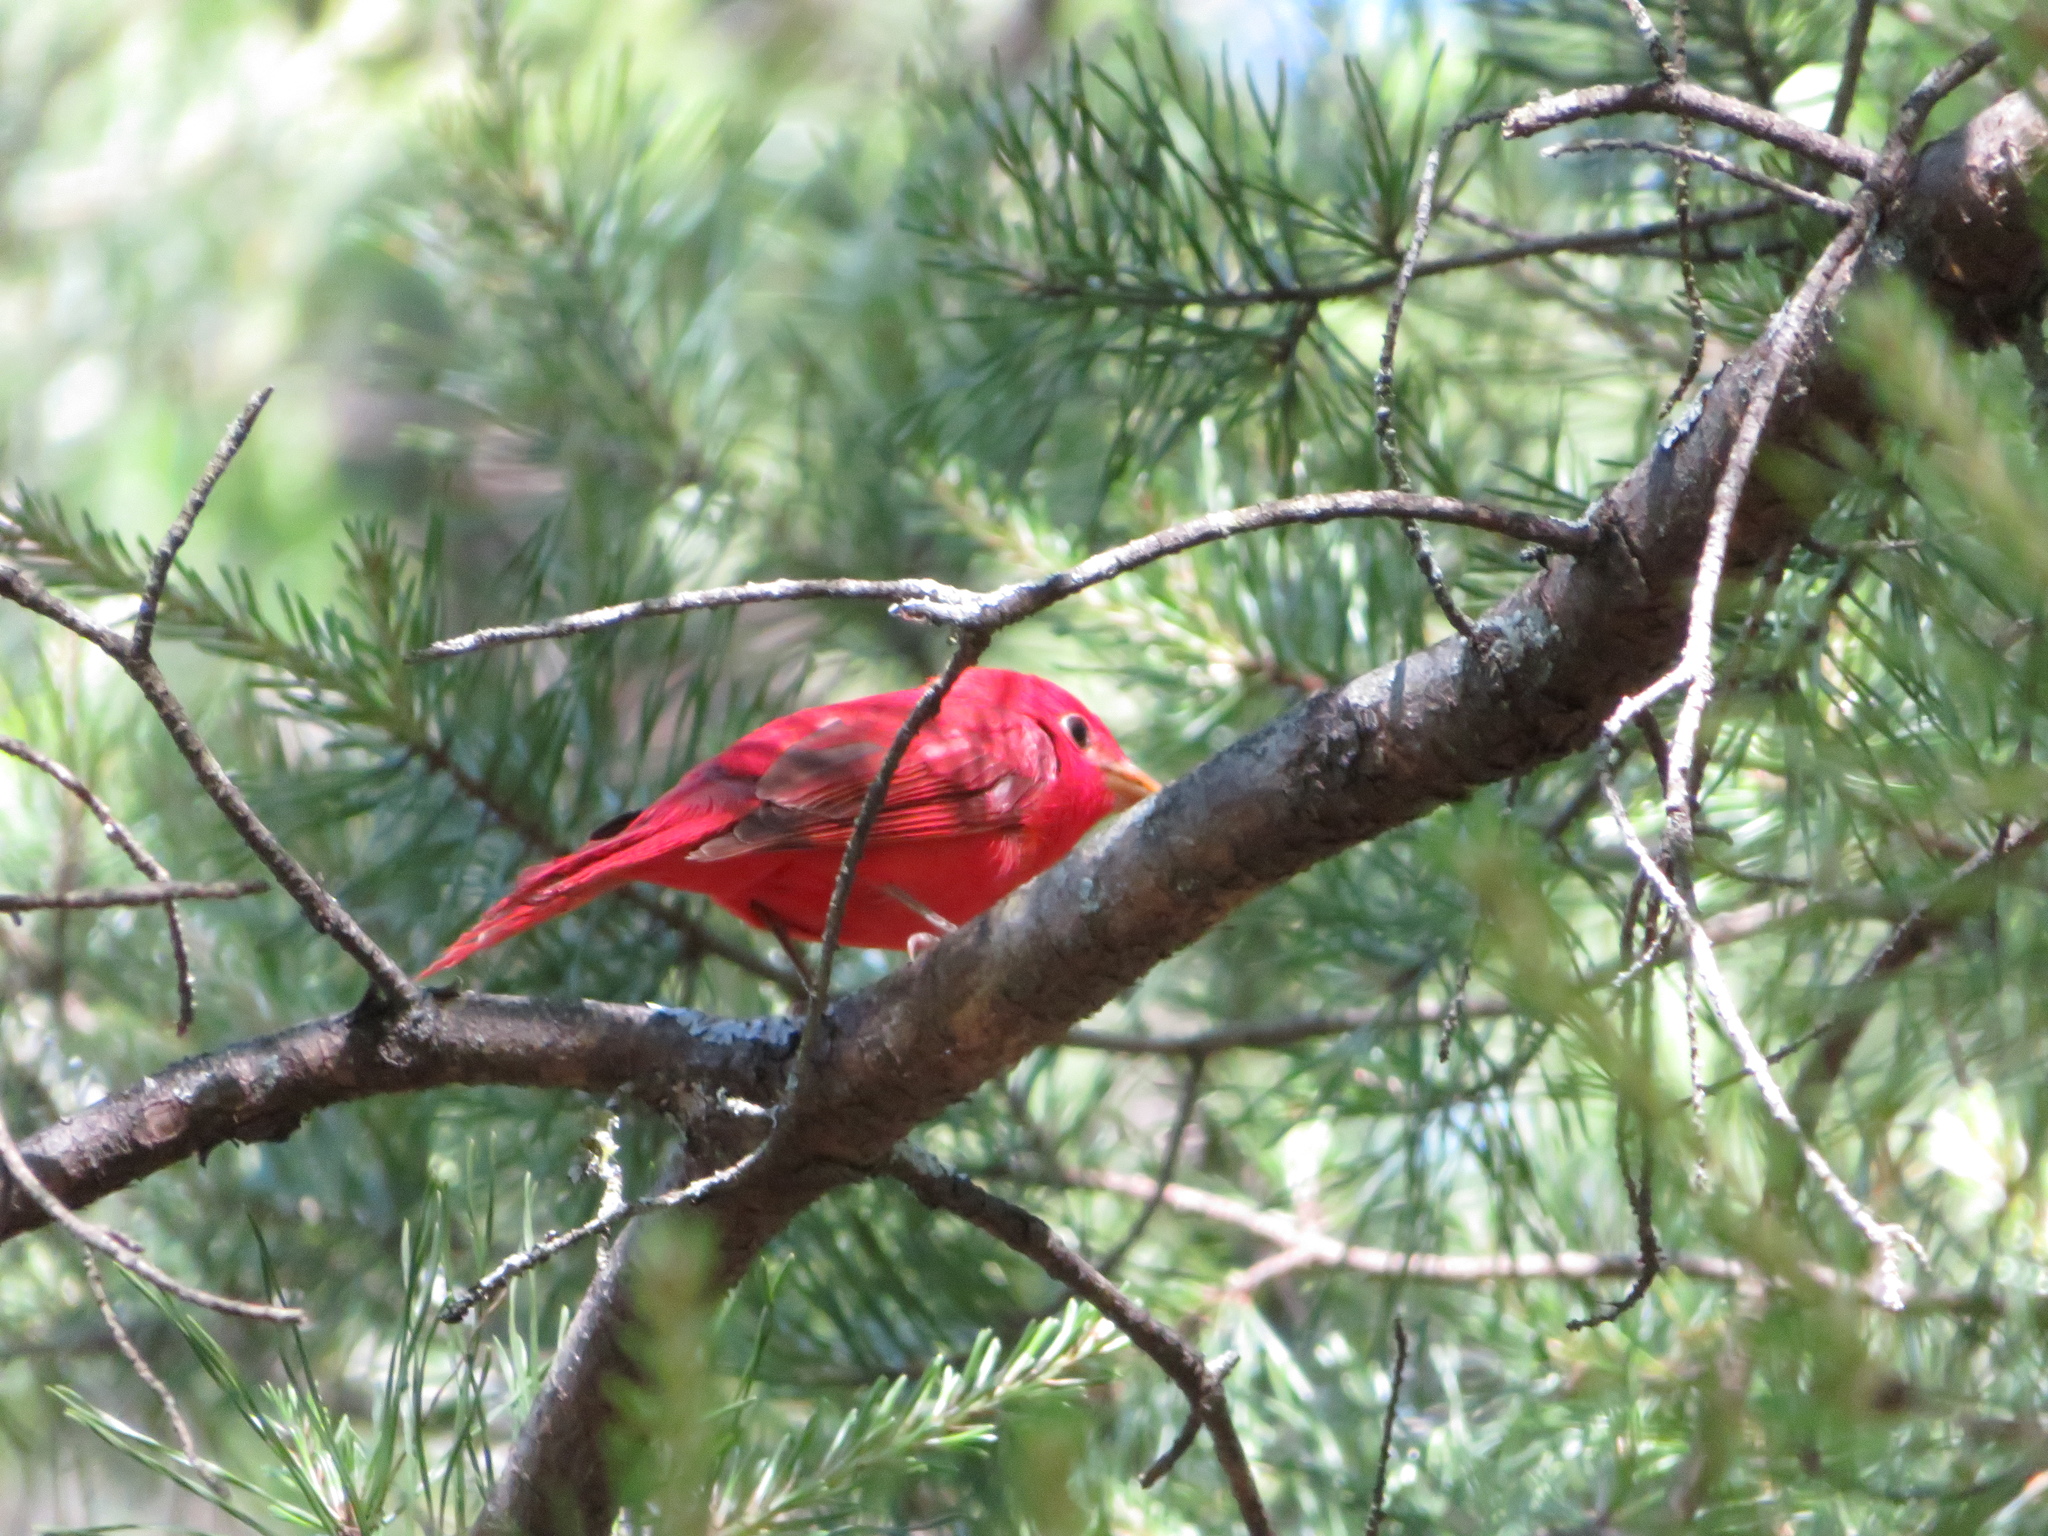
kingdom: Animalia
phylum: Chordata
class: Aves
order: Passeriformes
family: Cardinalidae
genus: Piranga
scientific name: Piranga rubra
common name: Summer tanager
